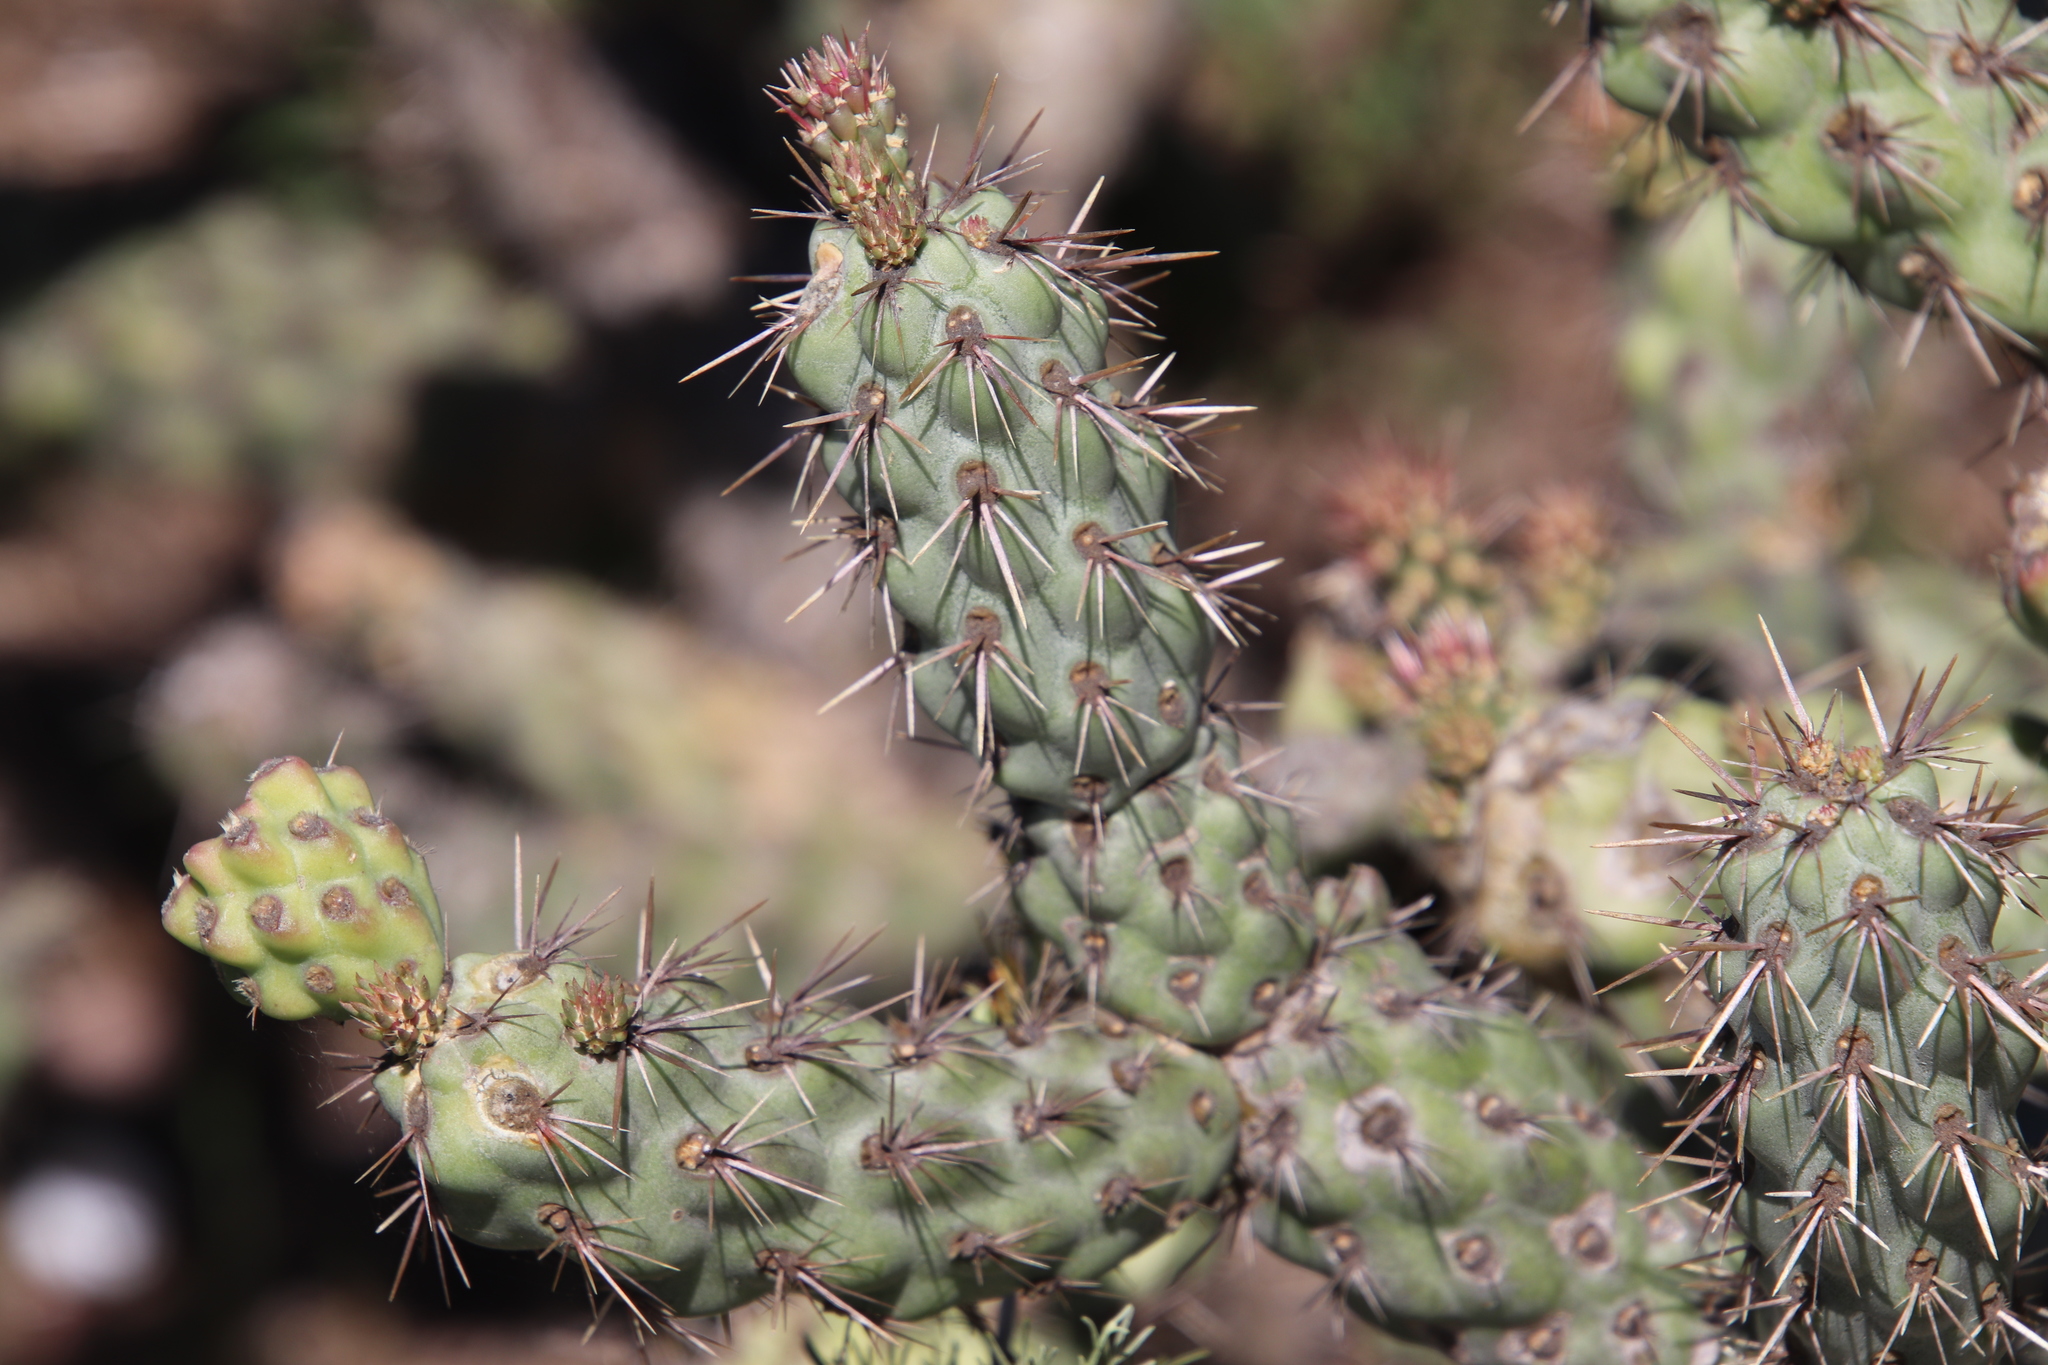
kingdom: Plantae
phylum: Tracheophyta
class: Magnoliopsida
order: Caryophyllales
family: Cactaceae
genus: Cylindropuntia
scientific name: Cylindropuntia prolifera
